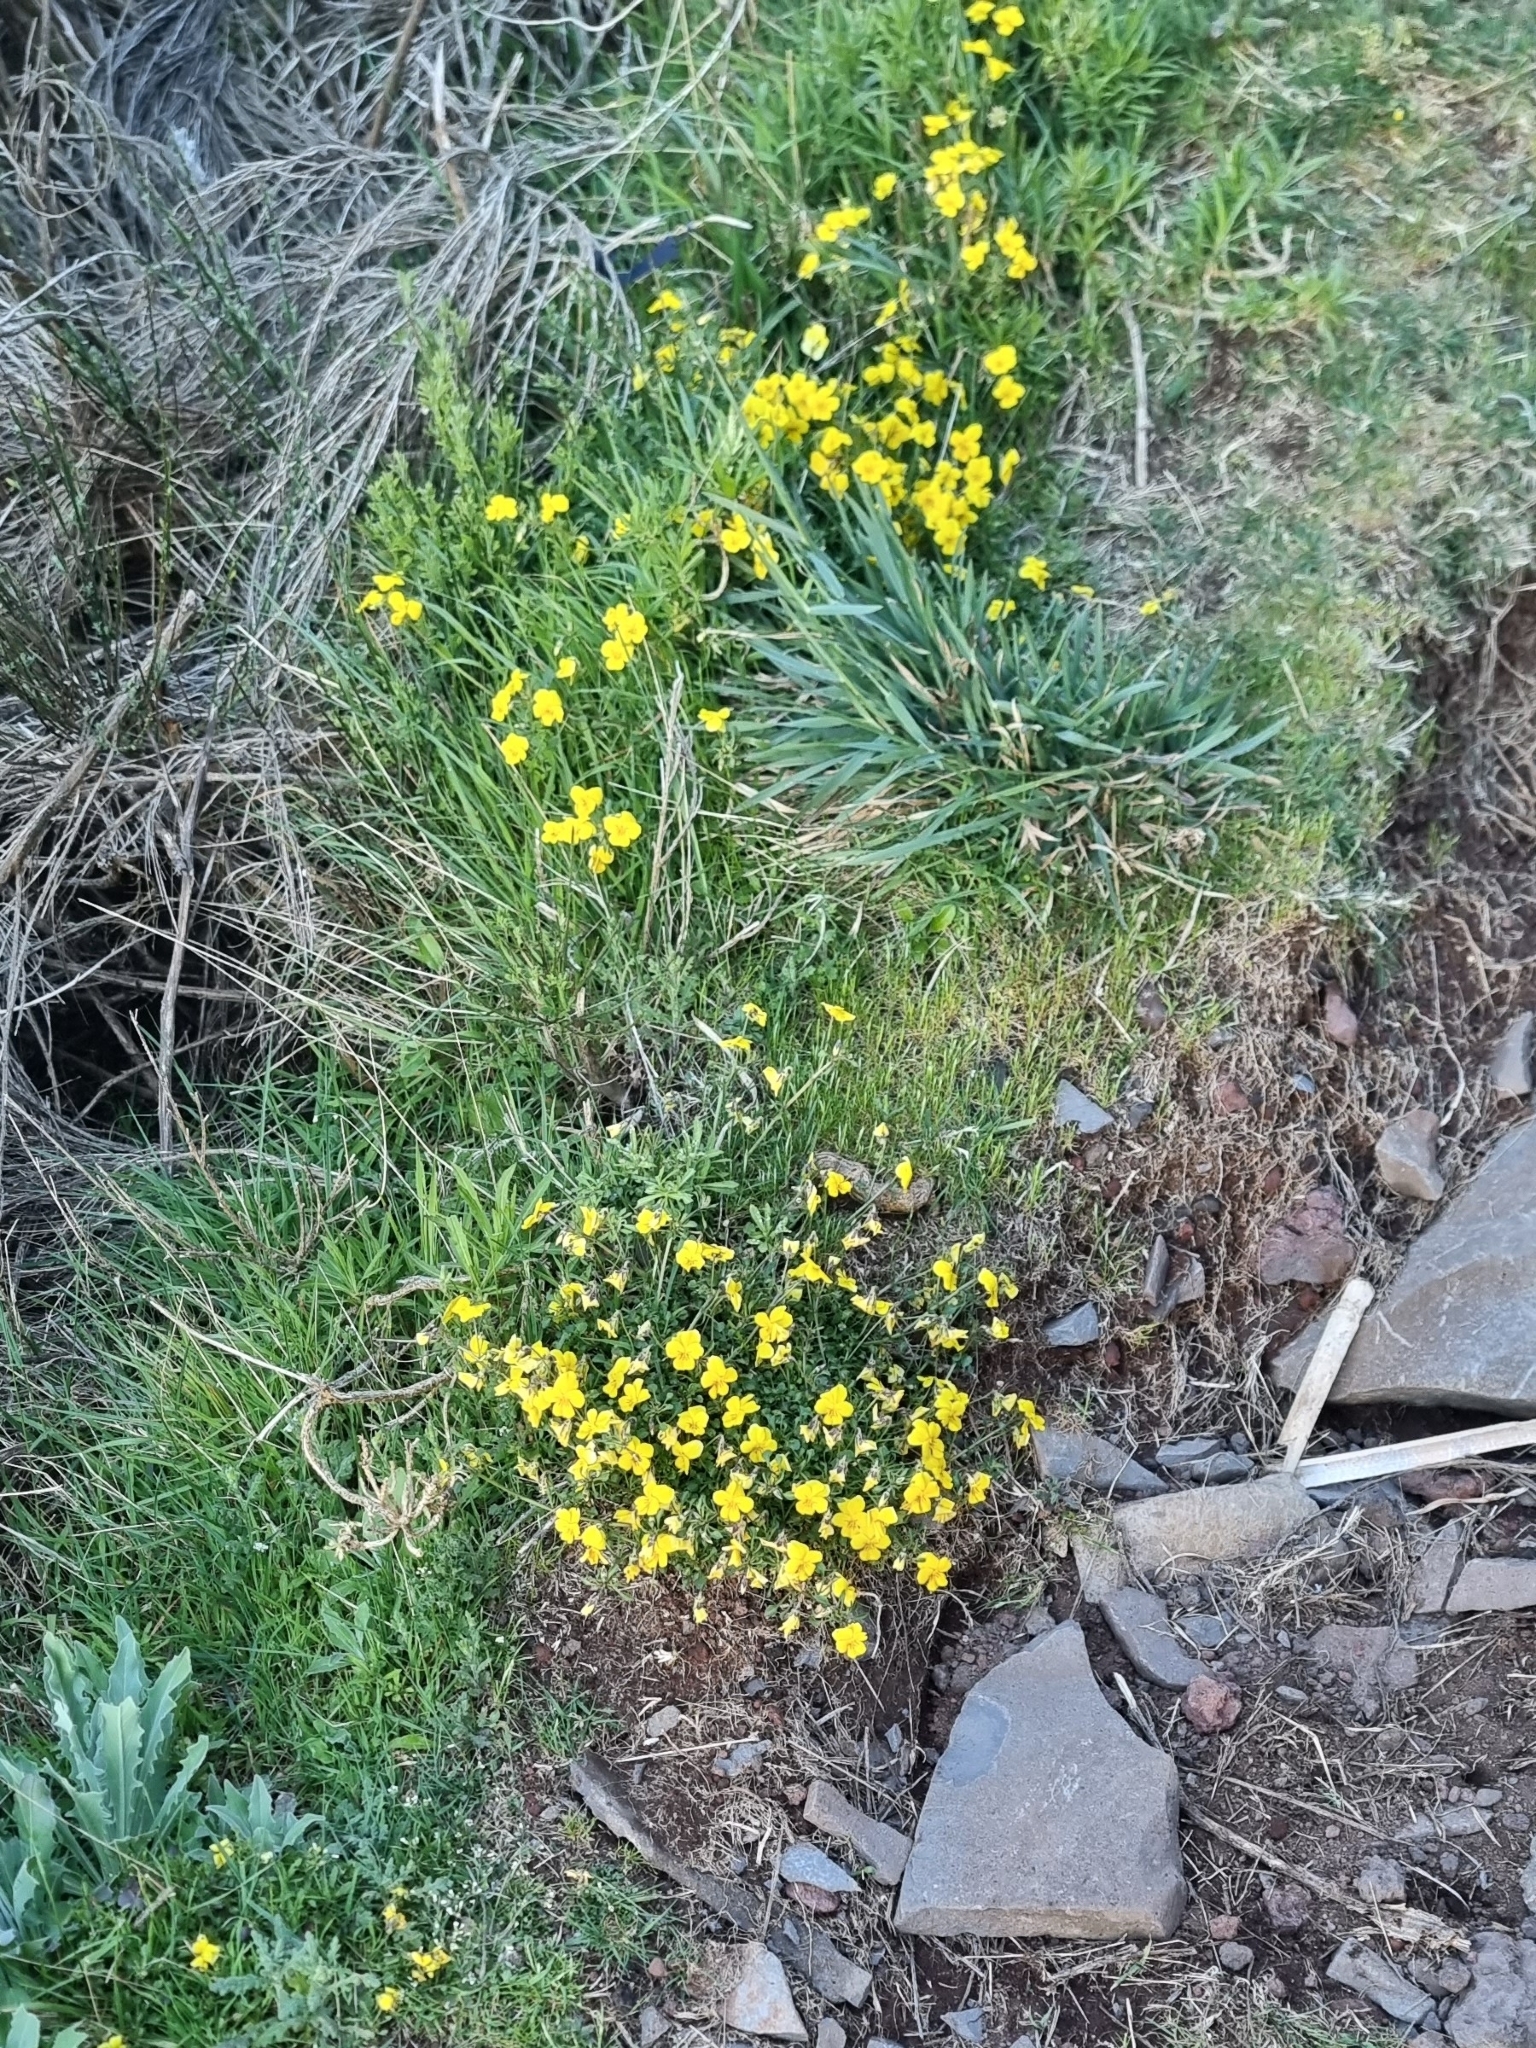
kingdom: Plantae
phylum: Tracheophyta
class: Magnoliopsida
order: Malpighiales
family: Violaceae
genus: Viola
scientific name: Viola paradoxa
